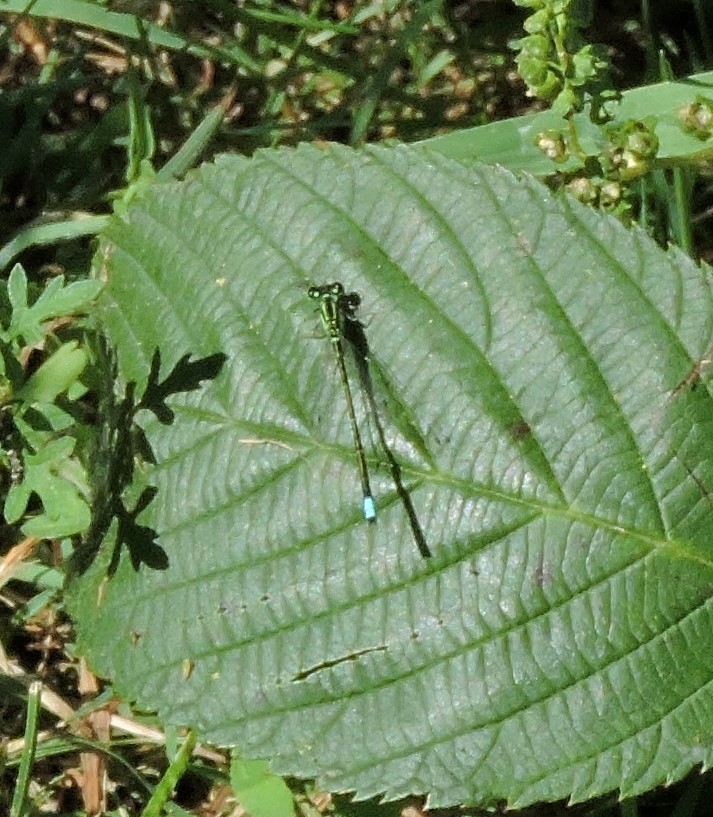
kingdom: Animalia
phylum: Arthropoda
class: Insecta
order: Odonata
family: Coenagrionidae
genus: Ischnura
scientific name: Ischnura verticalis
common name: Eastern forktail
